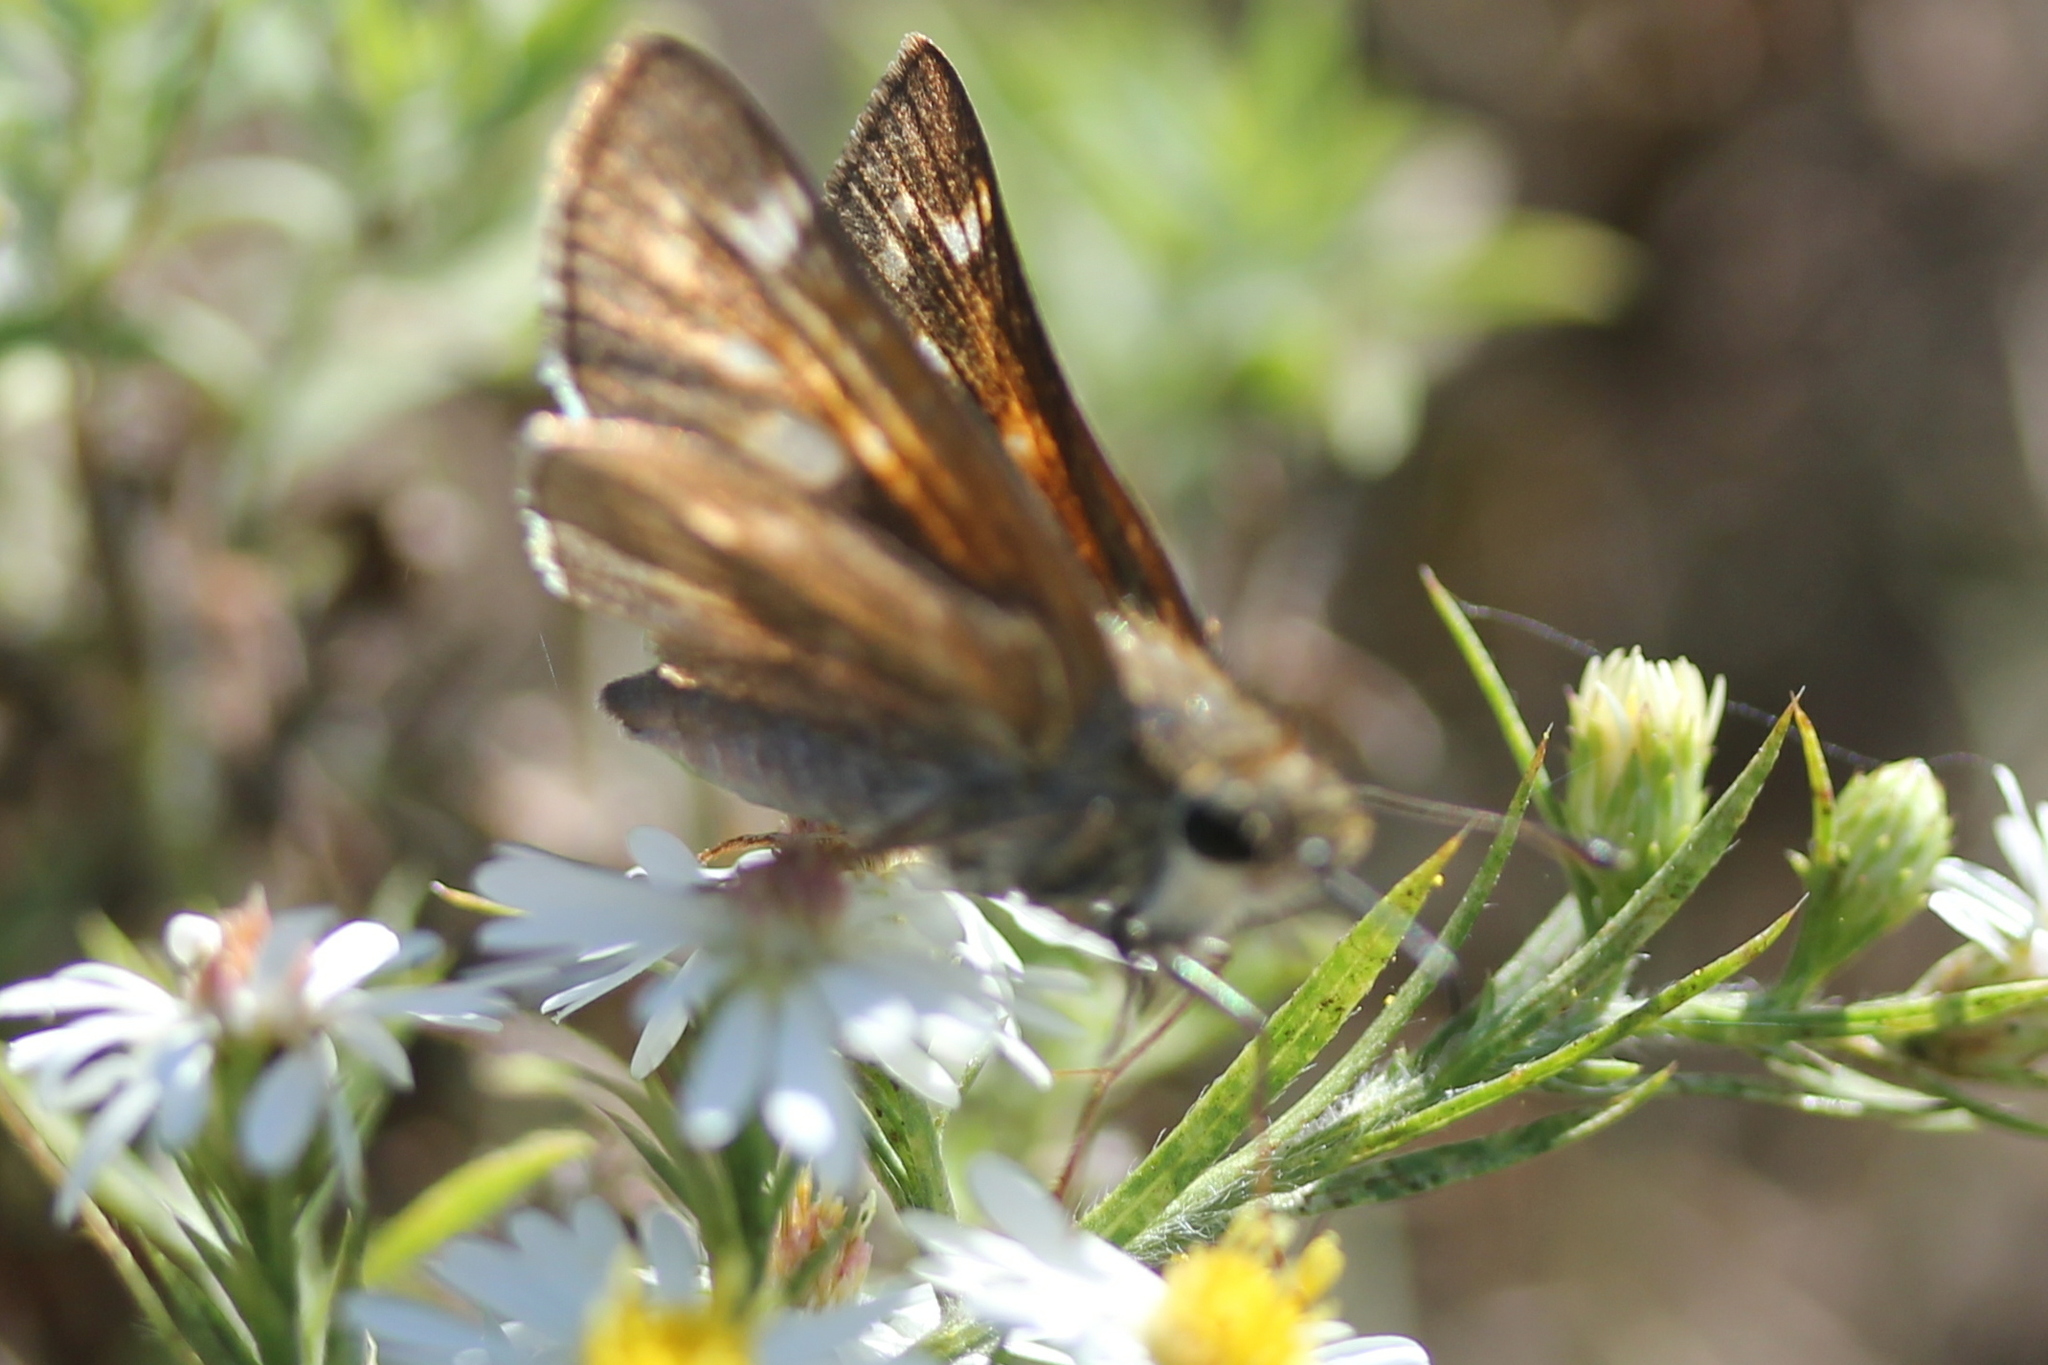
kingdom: Animalia
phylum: Arthropoda
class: Insecta
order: Lepidoptera
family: Hesperiidae
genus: Atalopedes
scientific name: Atalopedes
